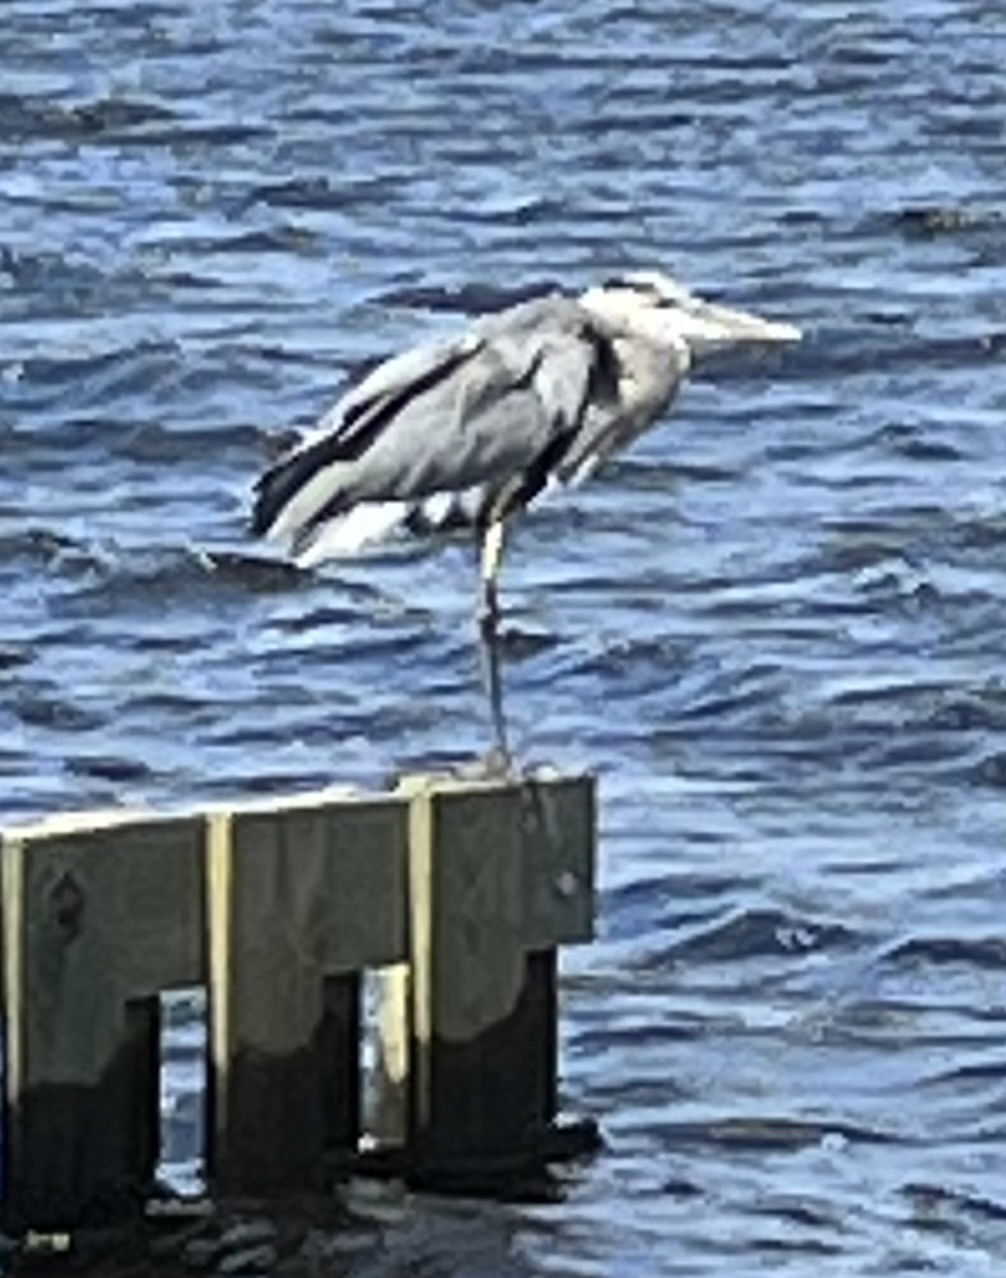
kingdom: Animalia
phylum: Chordata
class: Aves
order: Pelecaniformes
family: Ardeidae
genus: Ardea
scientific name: Ardea herodias
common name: Great blue heron
